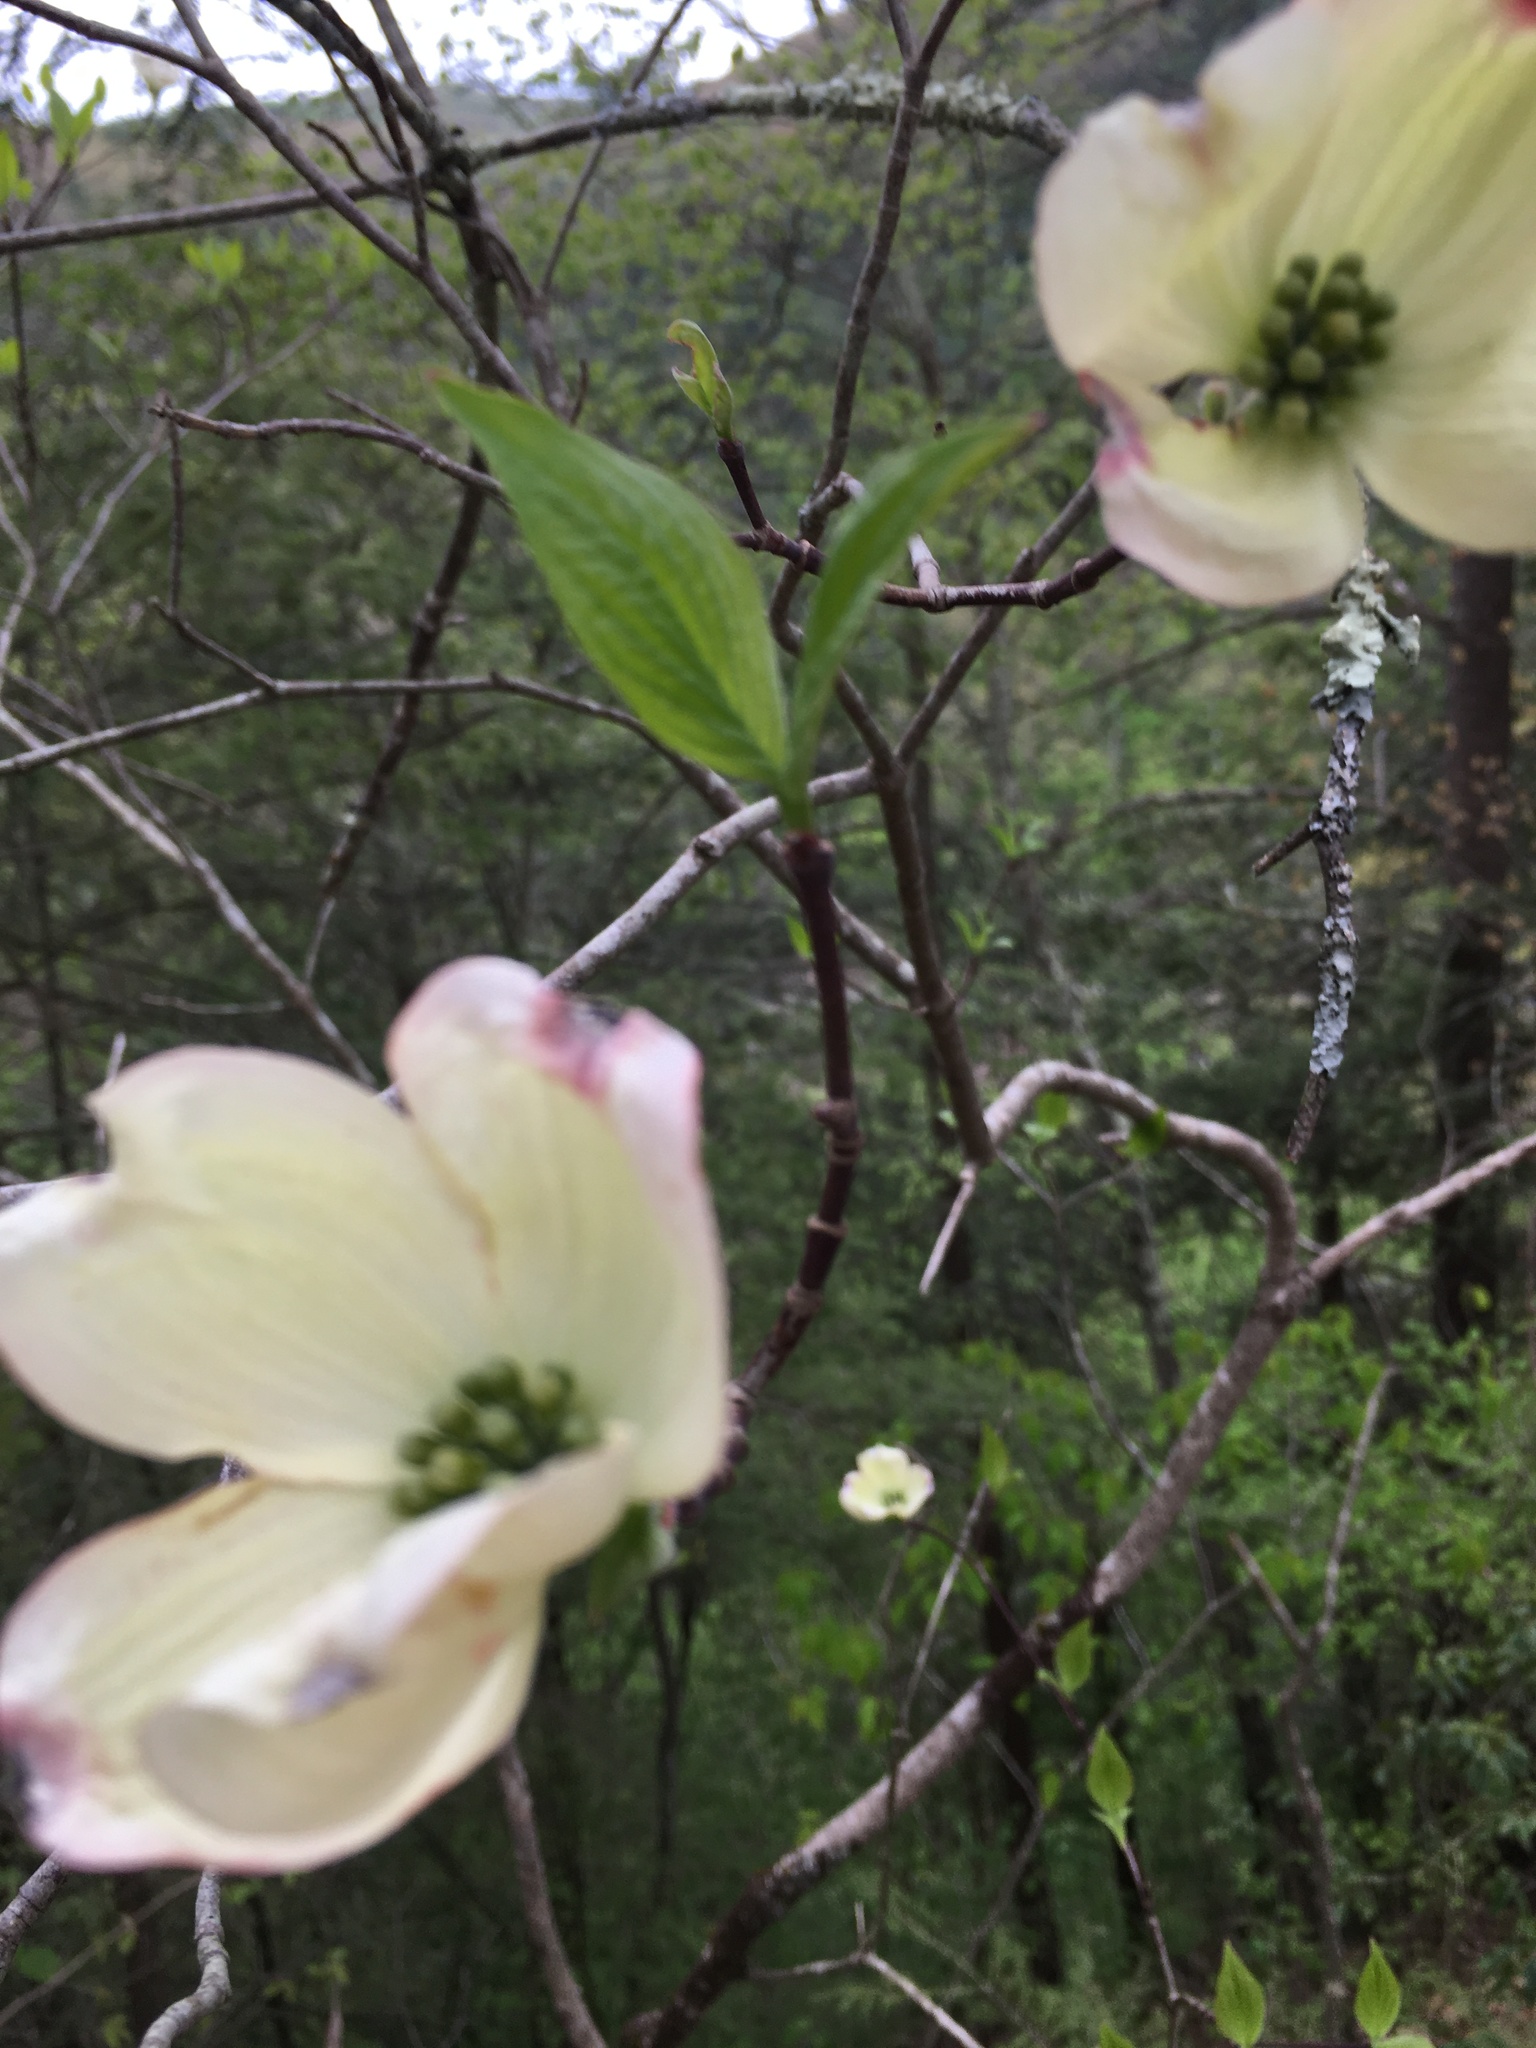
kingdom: Plantae
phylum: Tracheophyta
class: Magnoliopsida
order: Cornales
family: Cornaceae
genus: Cornus
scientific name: Cornus florida
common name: Flowering dogwood
